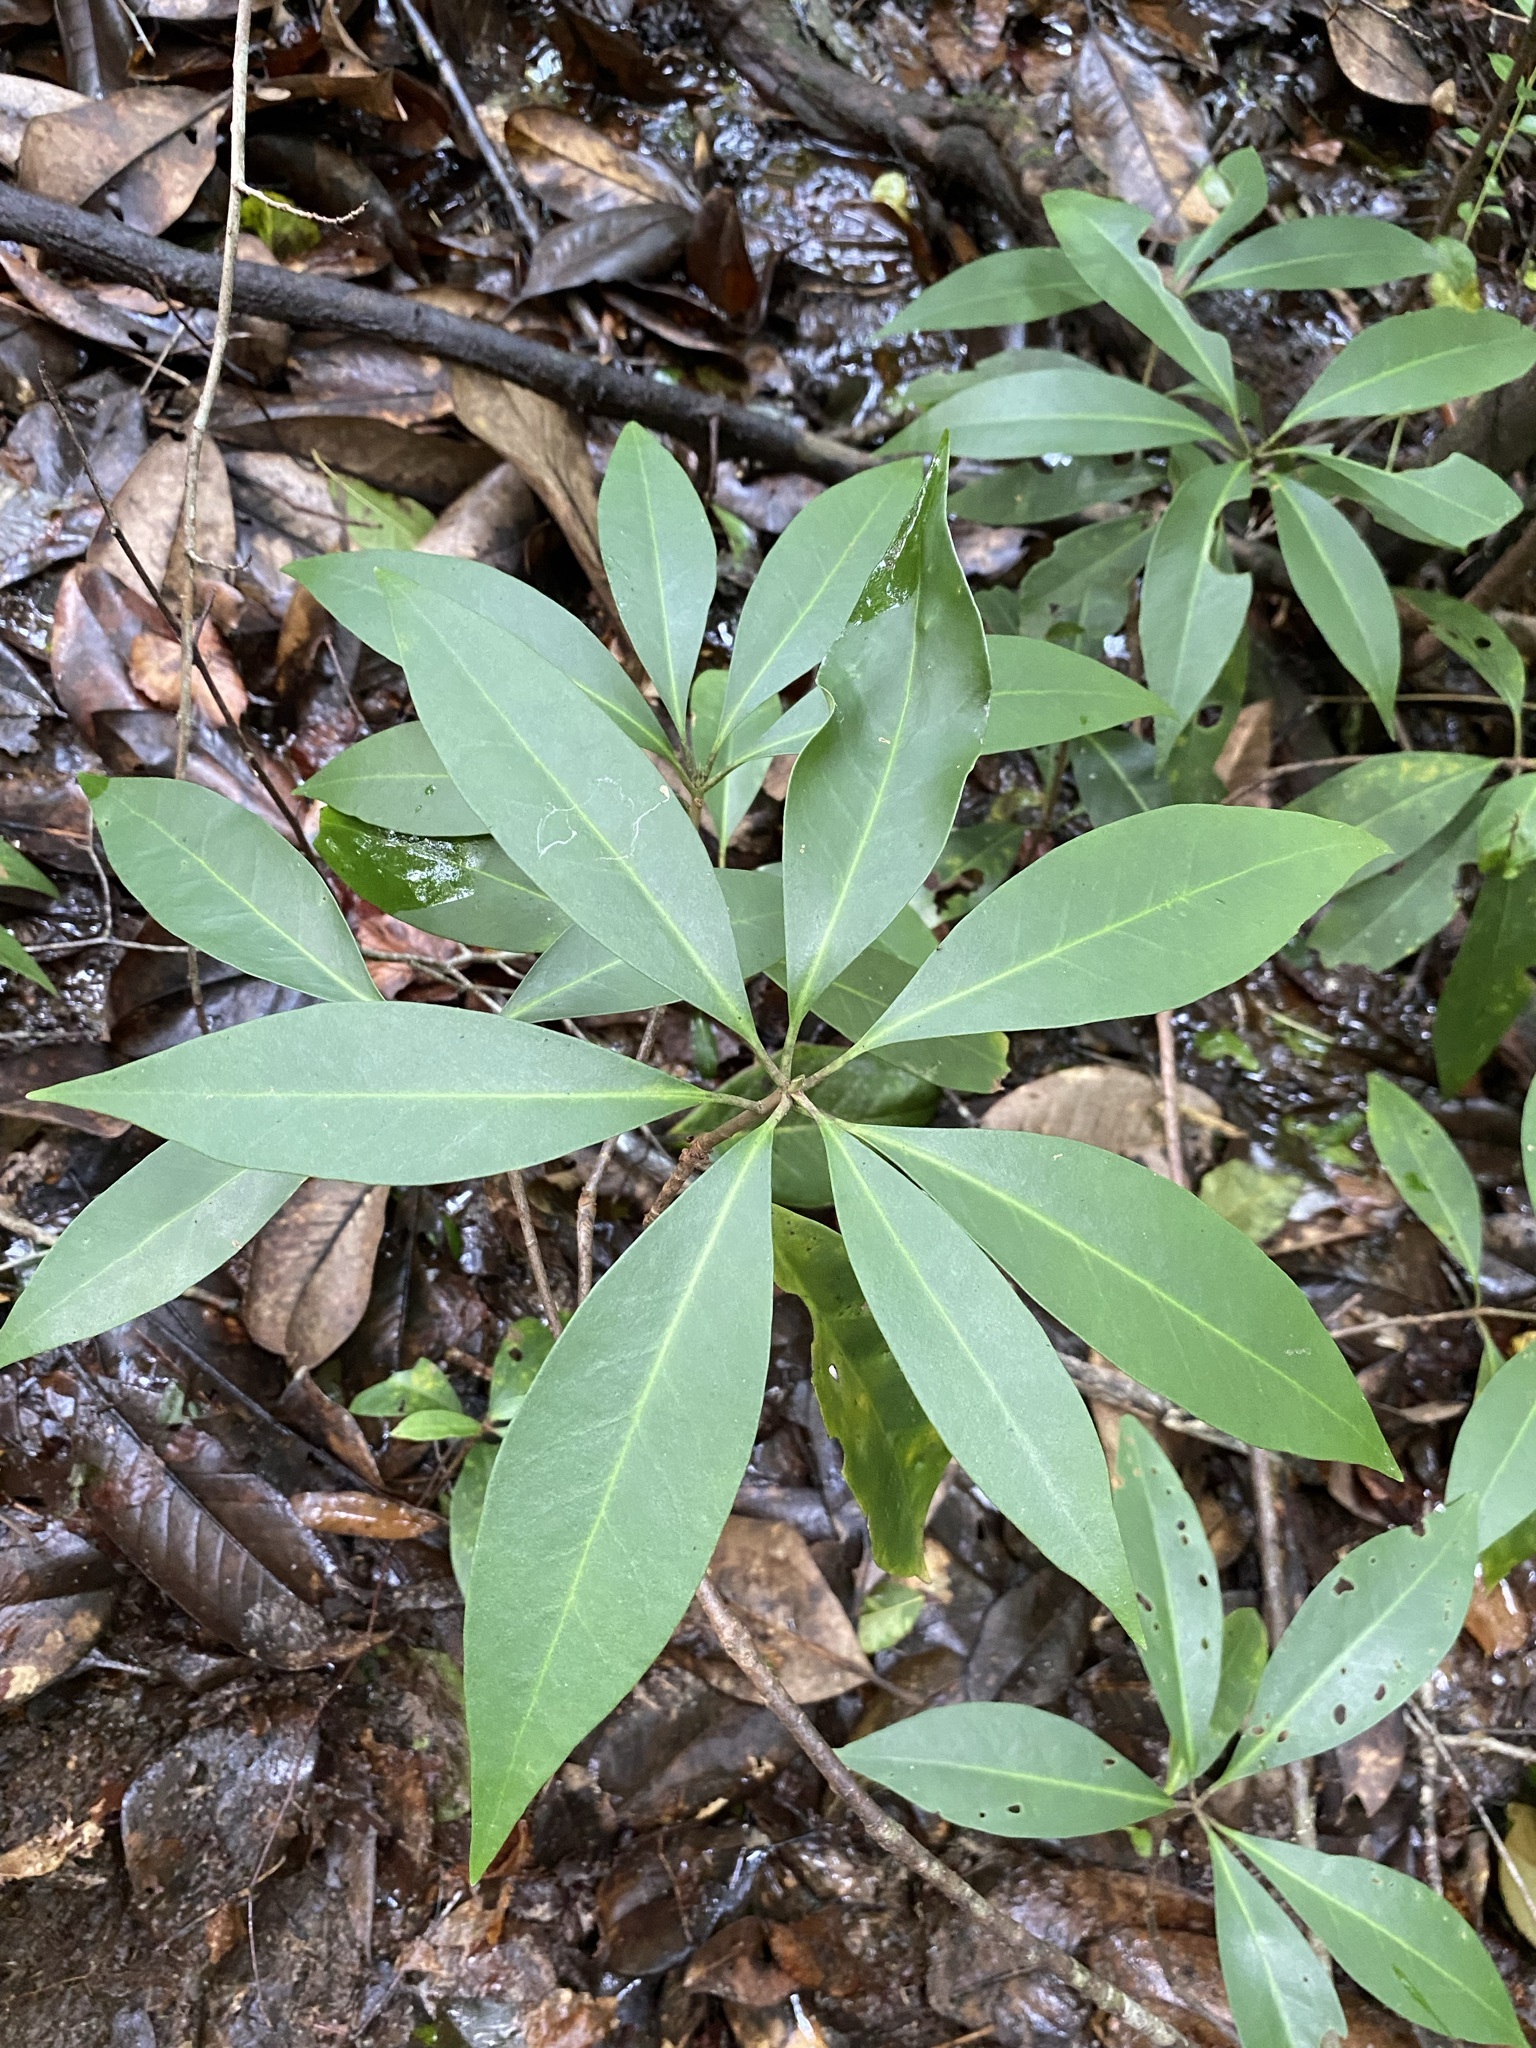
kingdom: Plantae
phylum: Tracheophyta
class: Magnoliopsida
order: Austrobaileyales
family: Schisandraceae
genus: Illicium
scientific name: Illicium floridanum
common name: Florida anisetree
